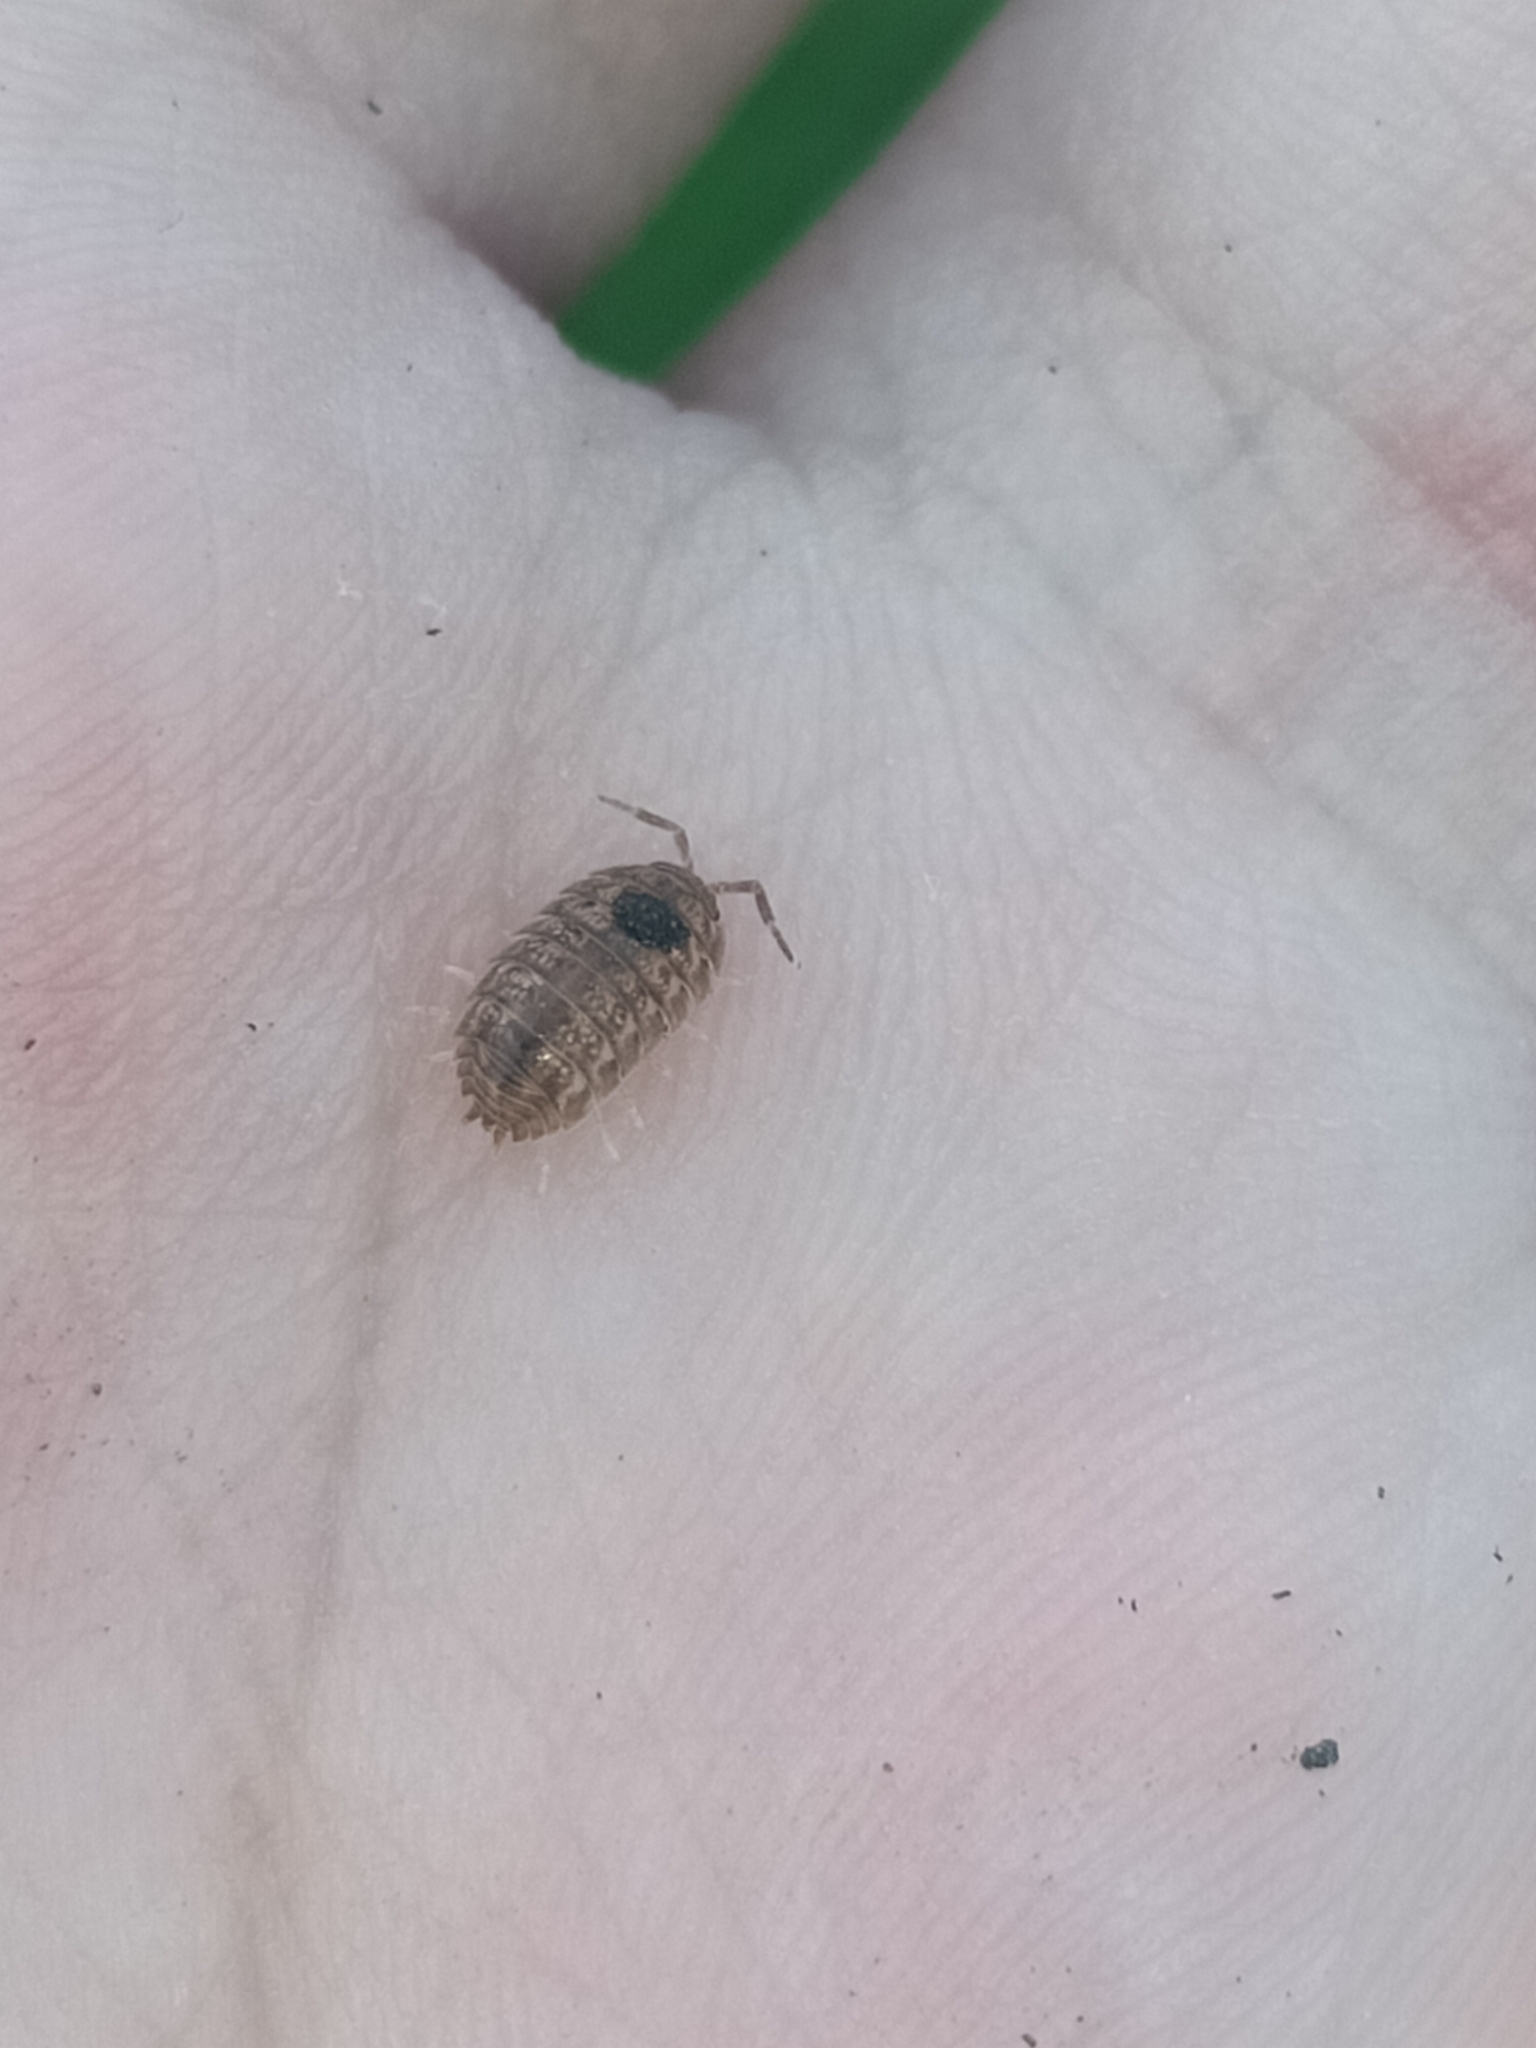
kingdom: Animalia
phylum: Arthropoda
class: Malacostraca
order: Isopoda
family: Trachelipodidae
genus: Trachelipus
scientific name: Trachelipus rathkii
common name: Isopod
